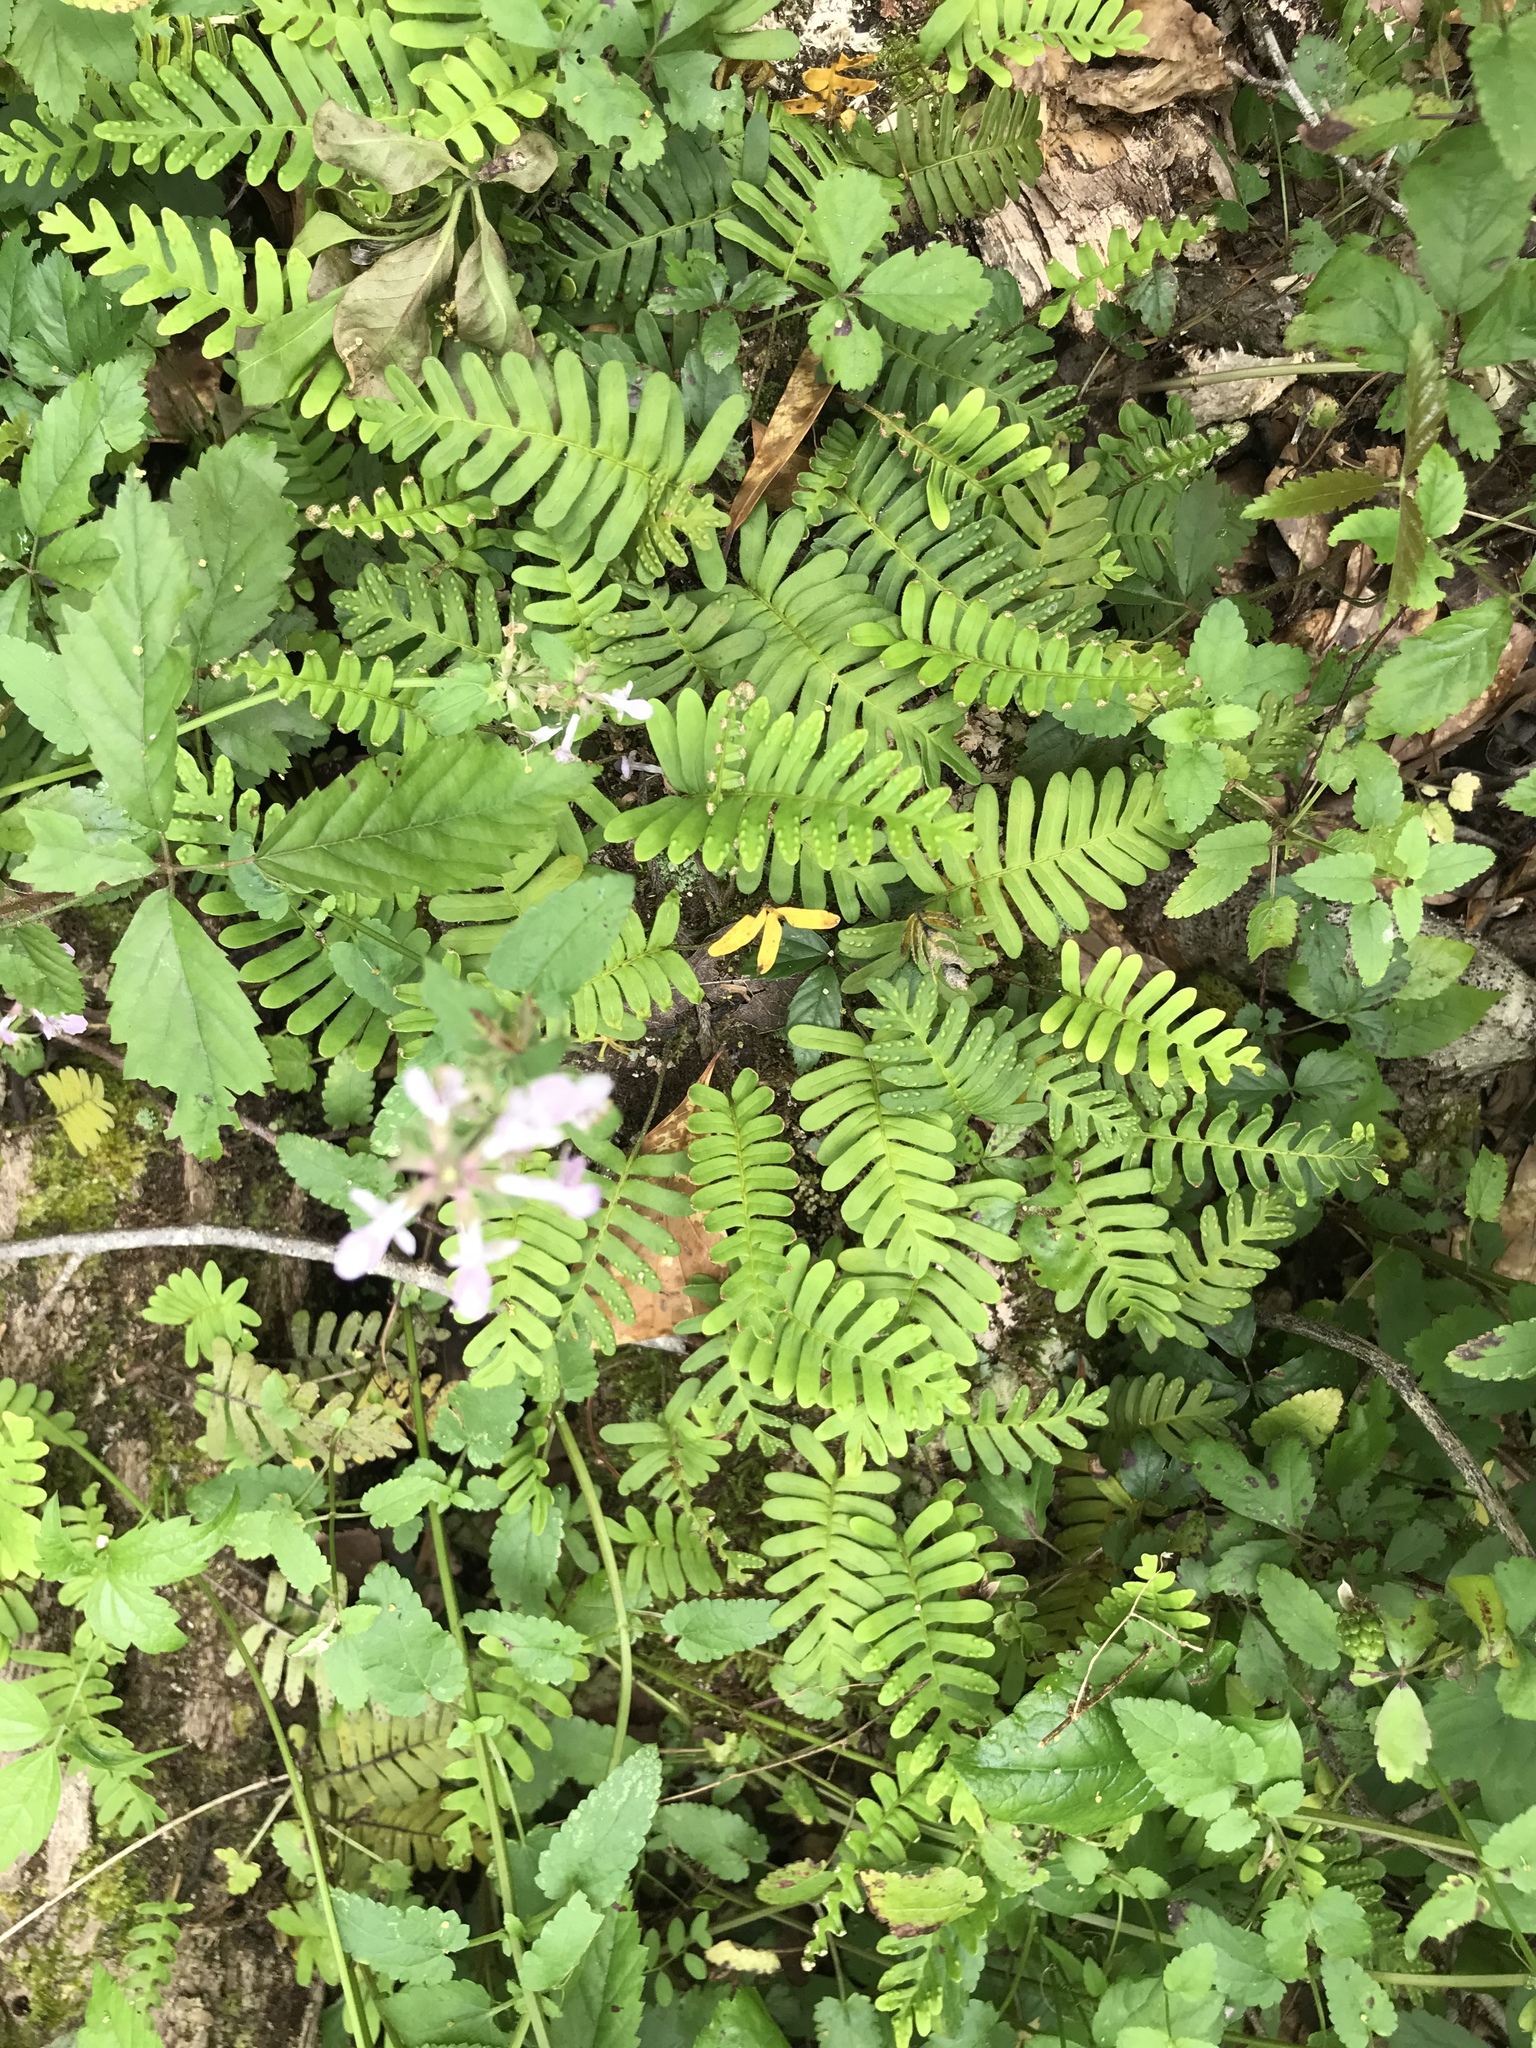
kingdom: Plantae
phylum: Tracheophyta
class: Polypodiopsida
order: Polypodiales
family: Polypodiaceae
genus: Pleopeltis
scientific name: Pleopeltis michauxiana
